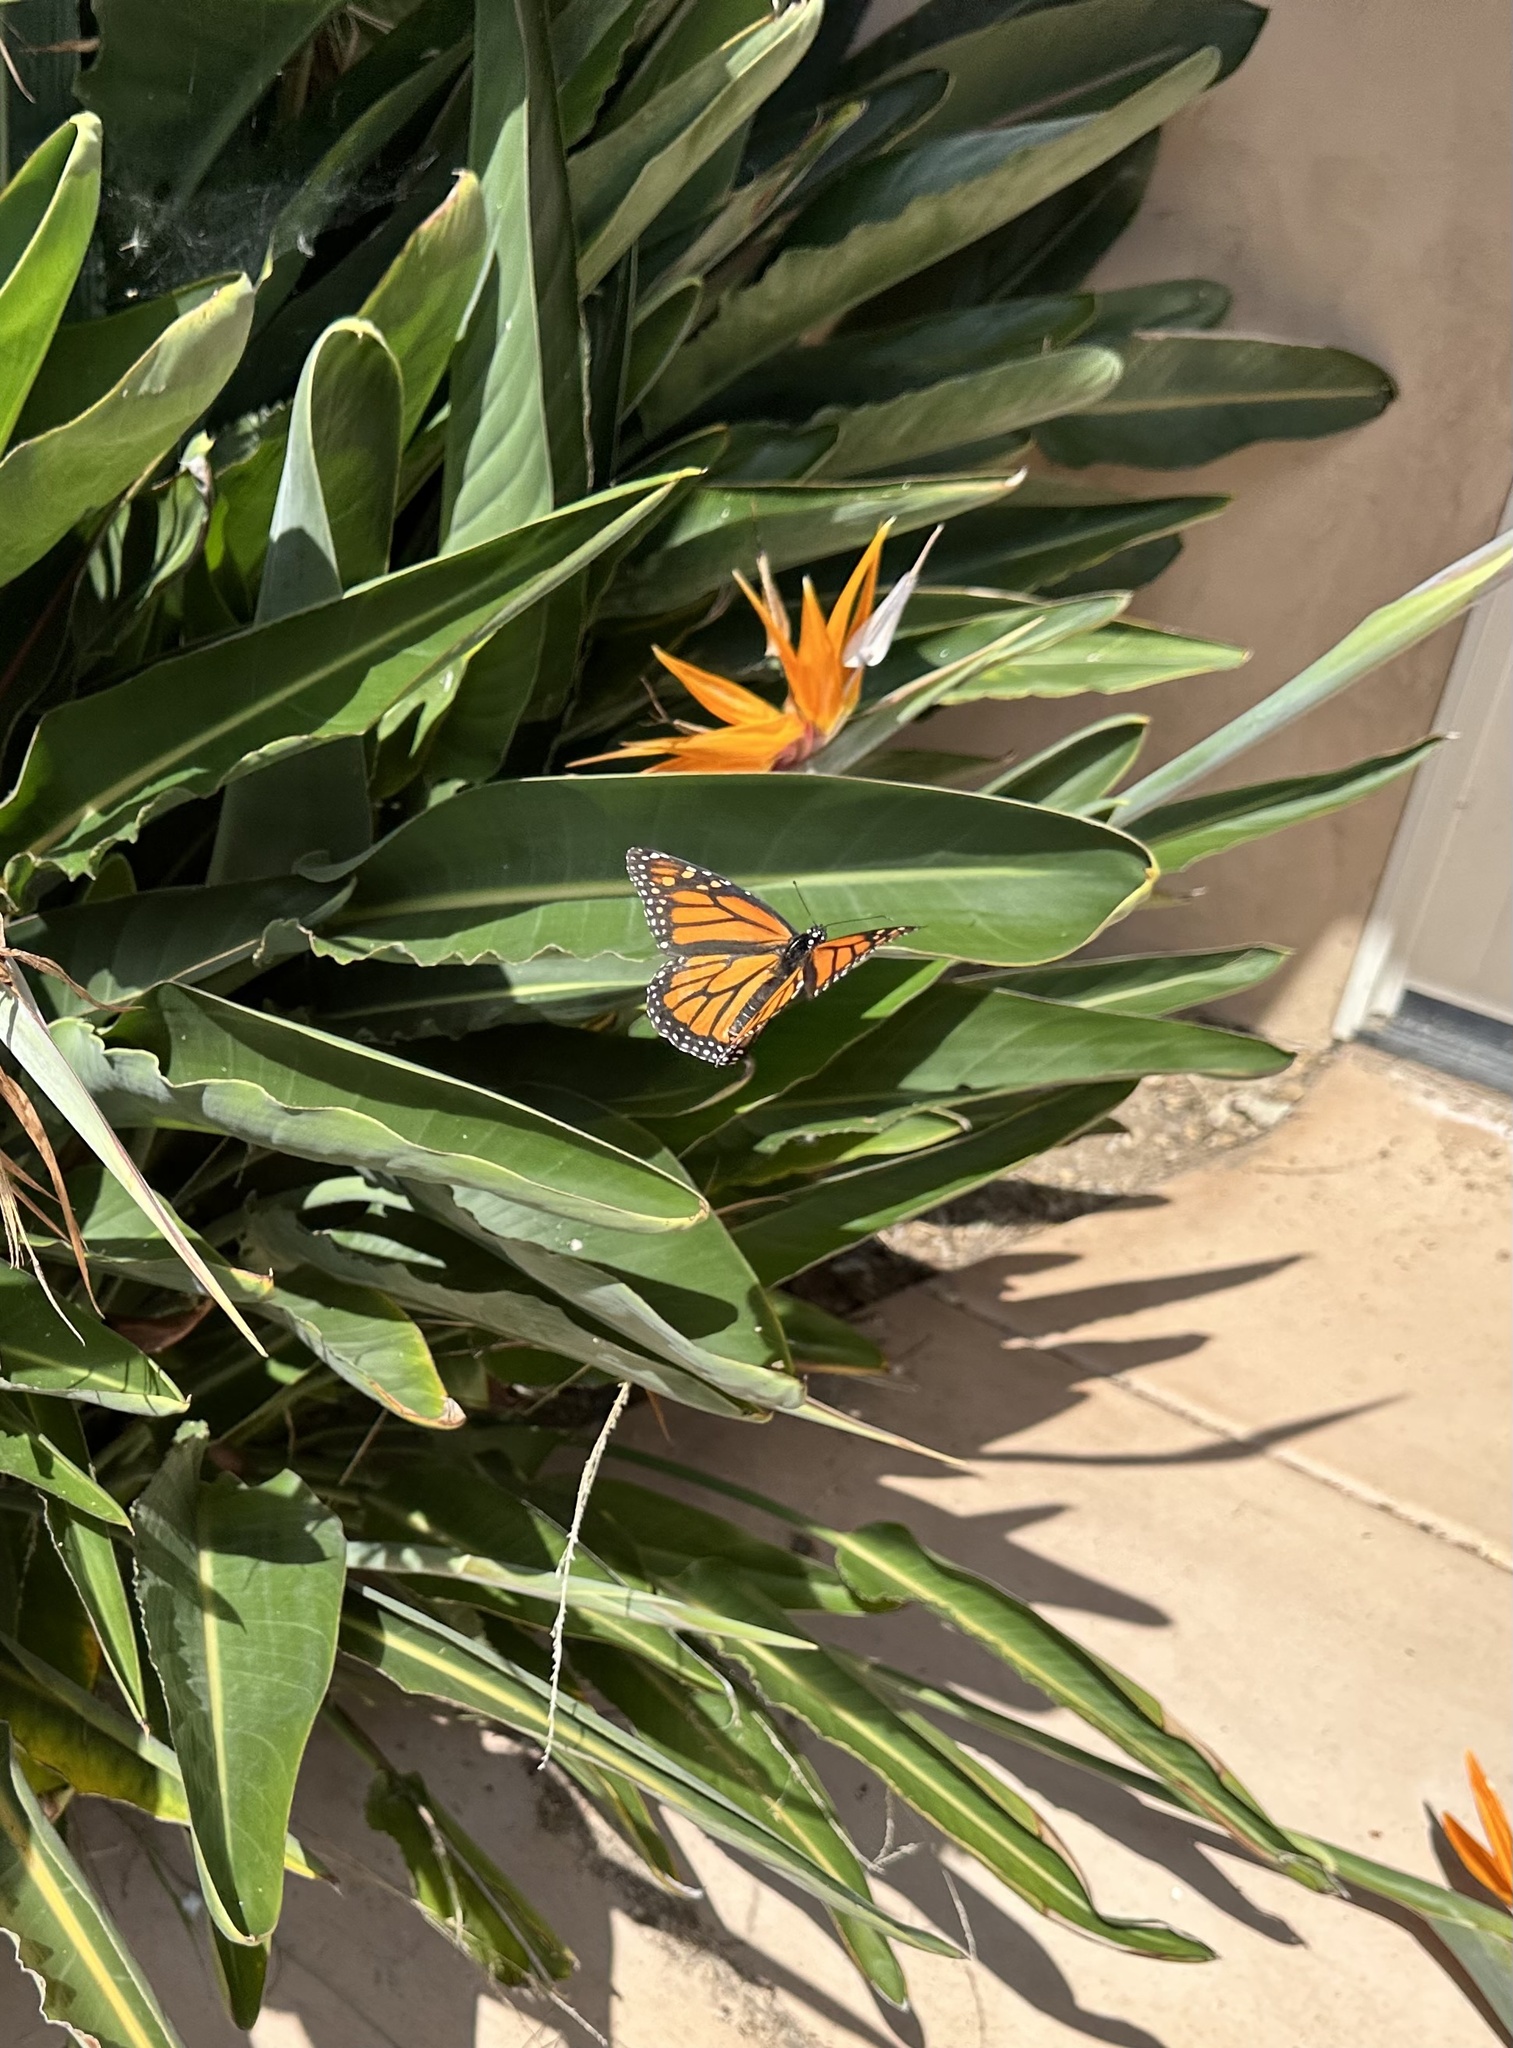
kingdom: Animalia
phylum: Arthropoda
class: Insecta
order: Lepidoptera
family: Nymphalidae
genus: Danaus
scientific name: Danaus plexippus
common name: Monarch
